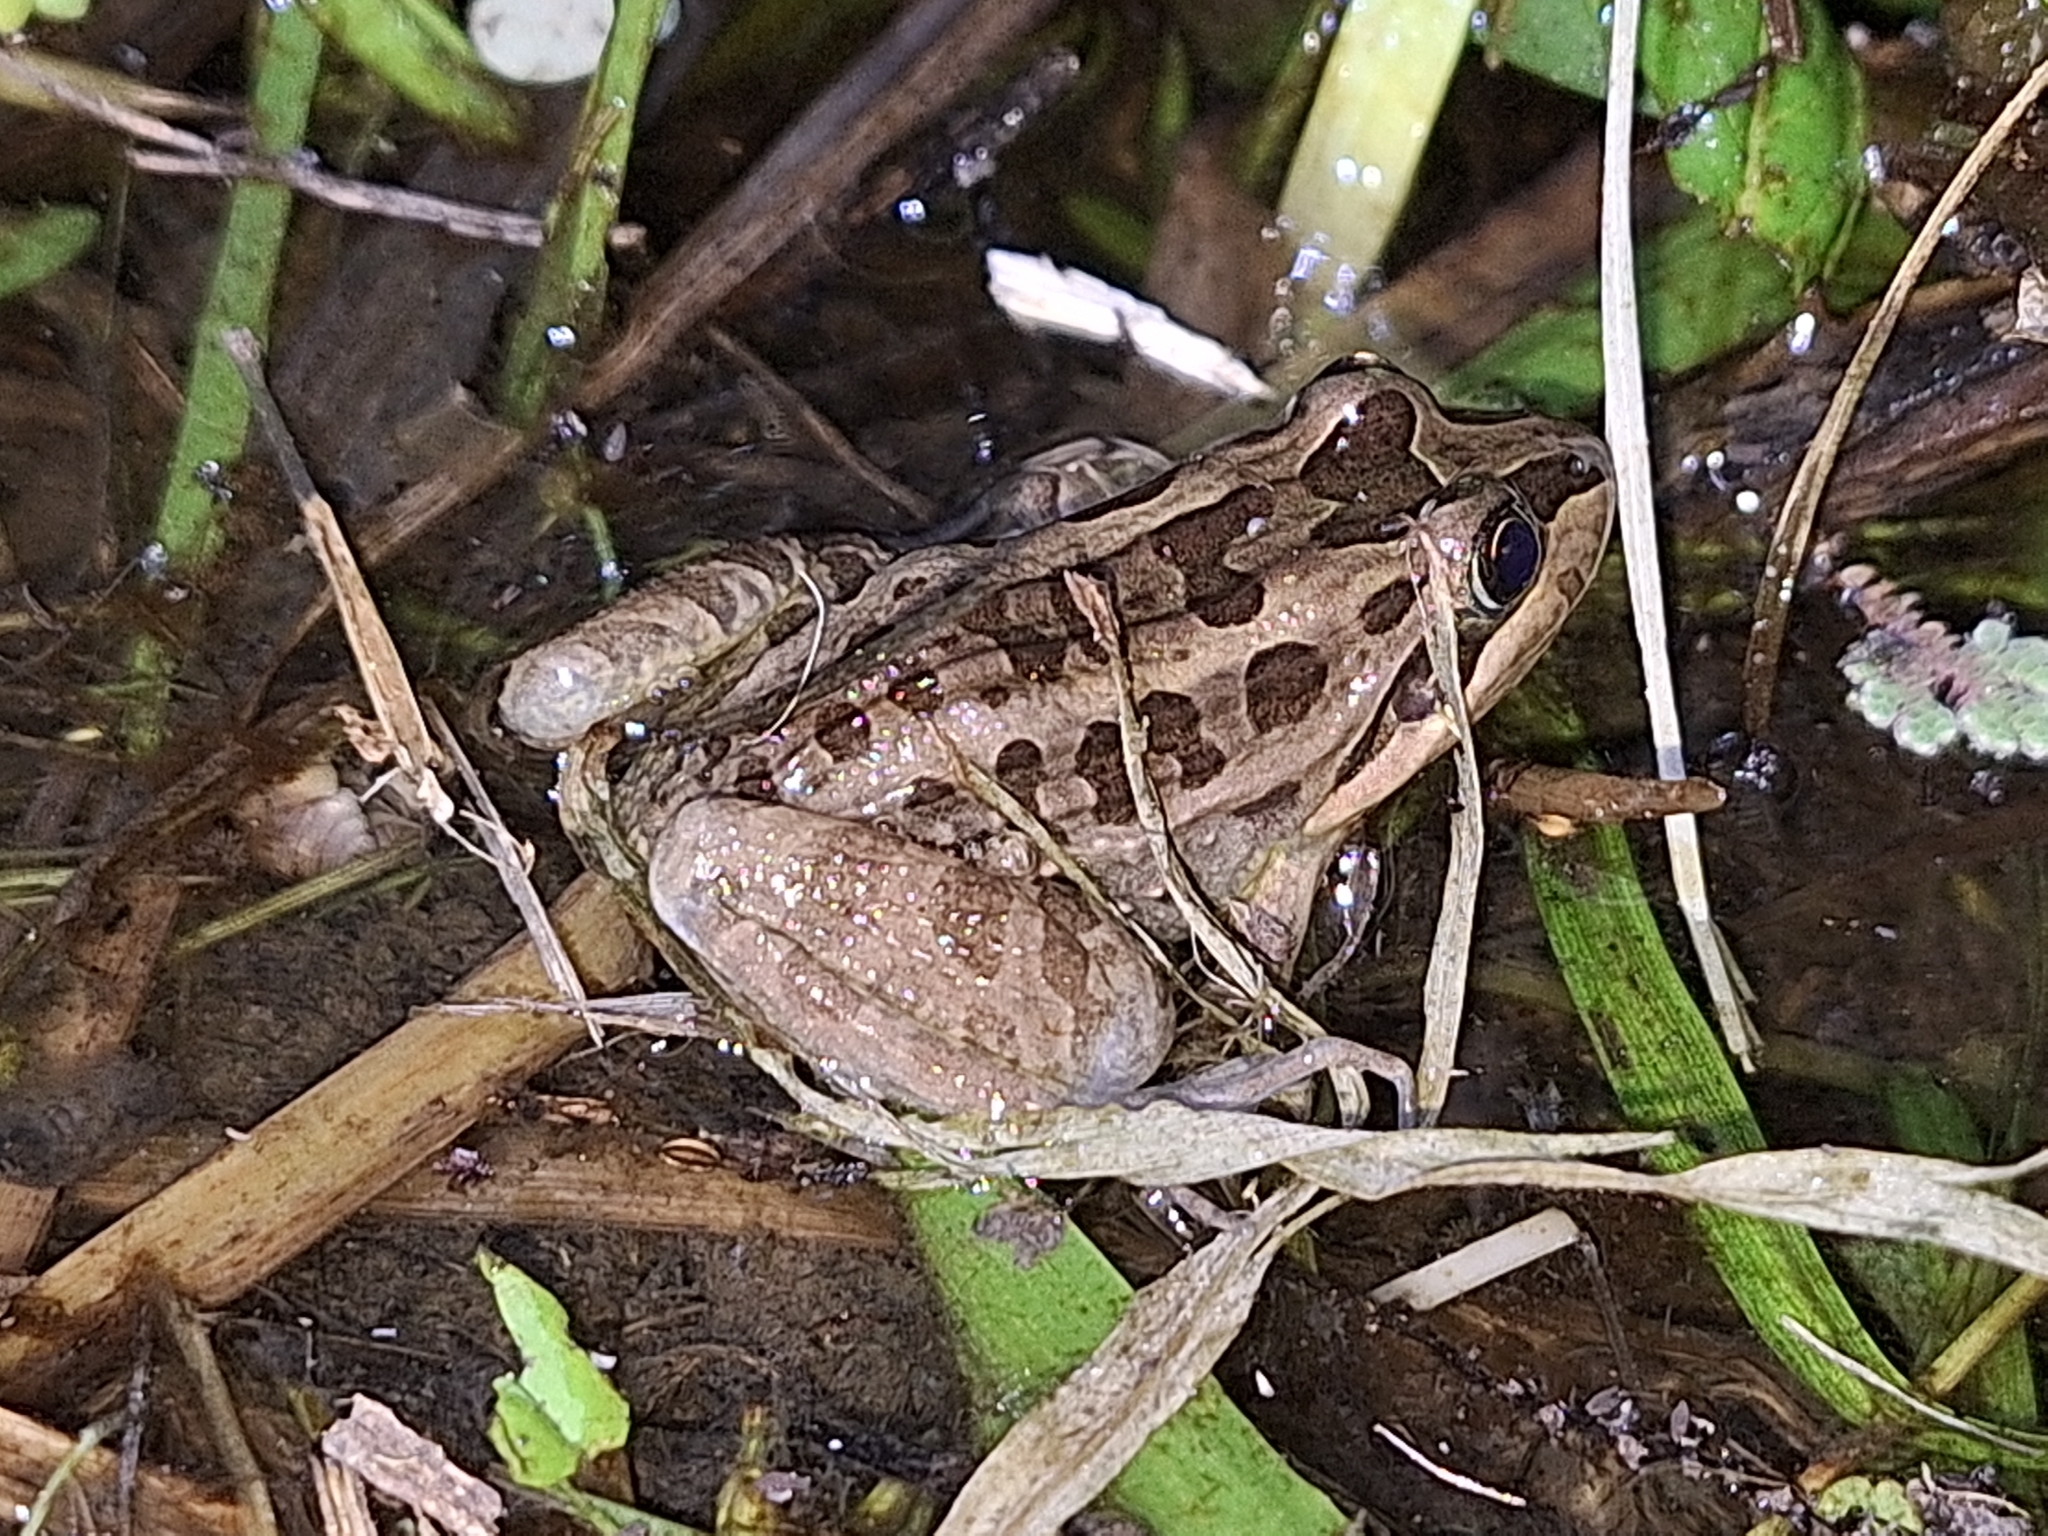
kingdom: Animalia
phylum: Chordata
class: Amphibia
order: Anura
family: Leptodactylidae
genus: Leptodactylus
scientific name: Leptodactylus luctator
